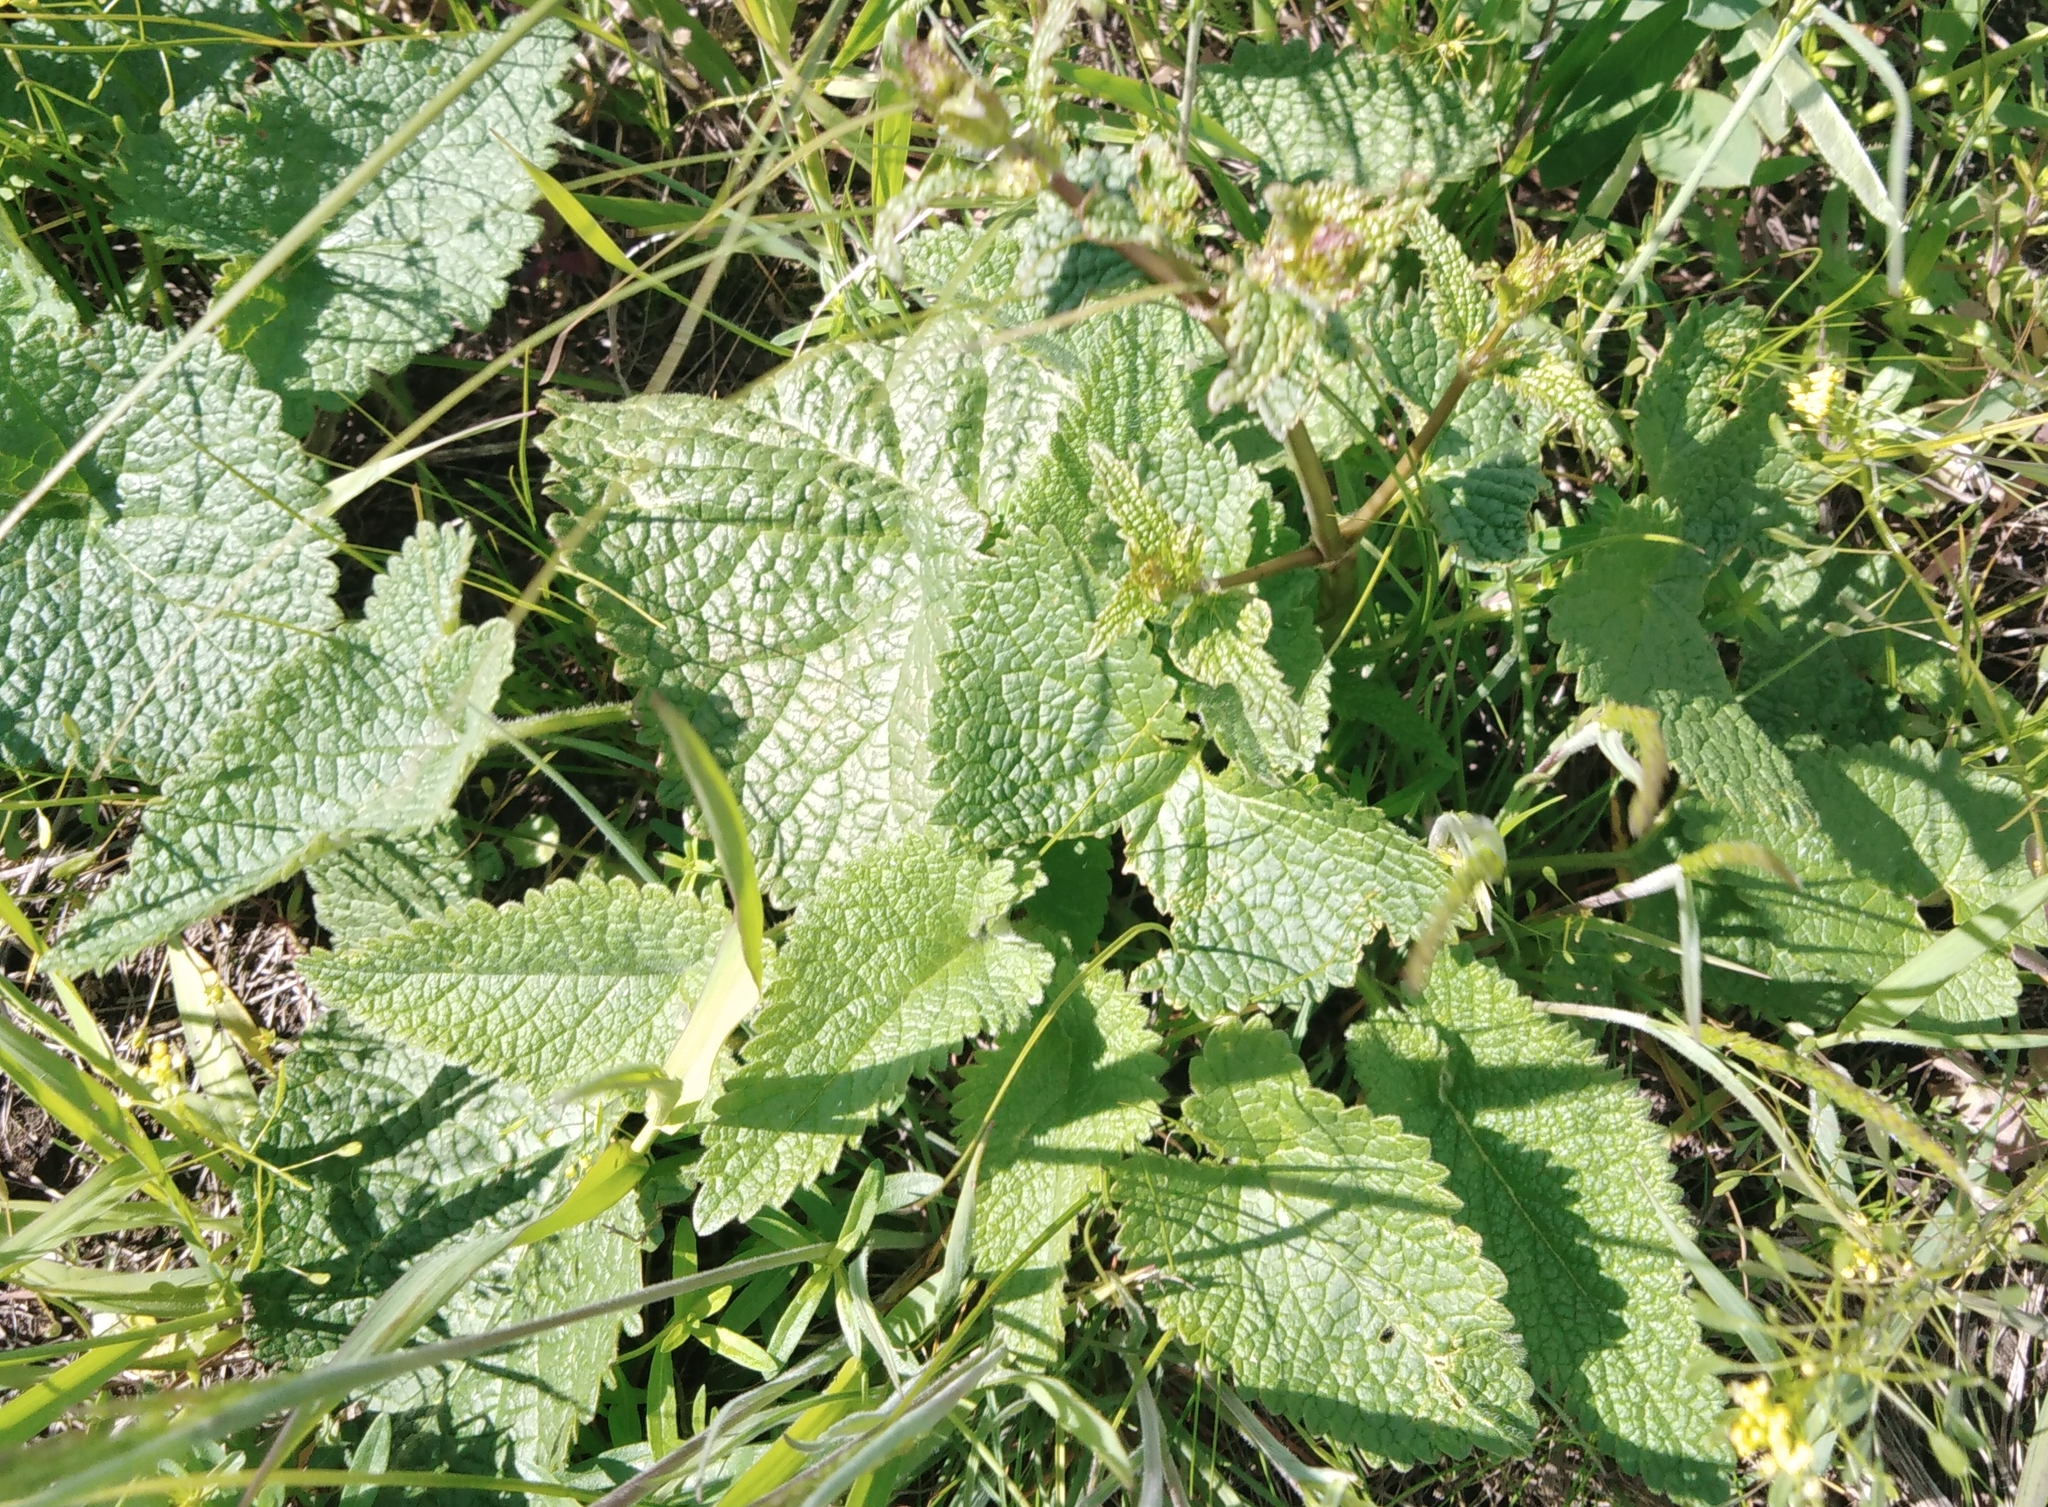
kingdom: Plantae
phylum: Tracheophyta
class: Magnoliopsida
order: Lamiales
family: Lamiaceae
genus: Phlomoides
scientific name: Phlomoides tuberosa
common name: Tuberous jerusalem sage
